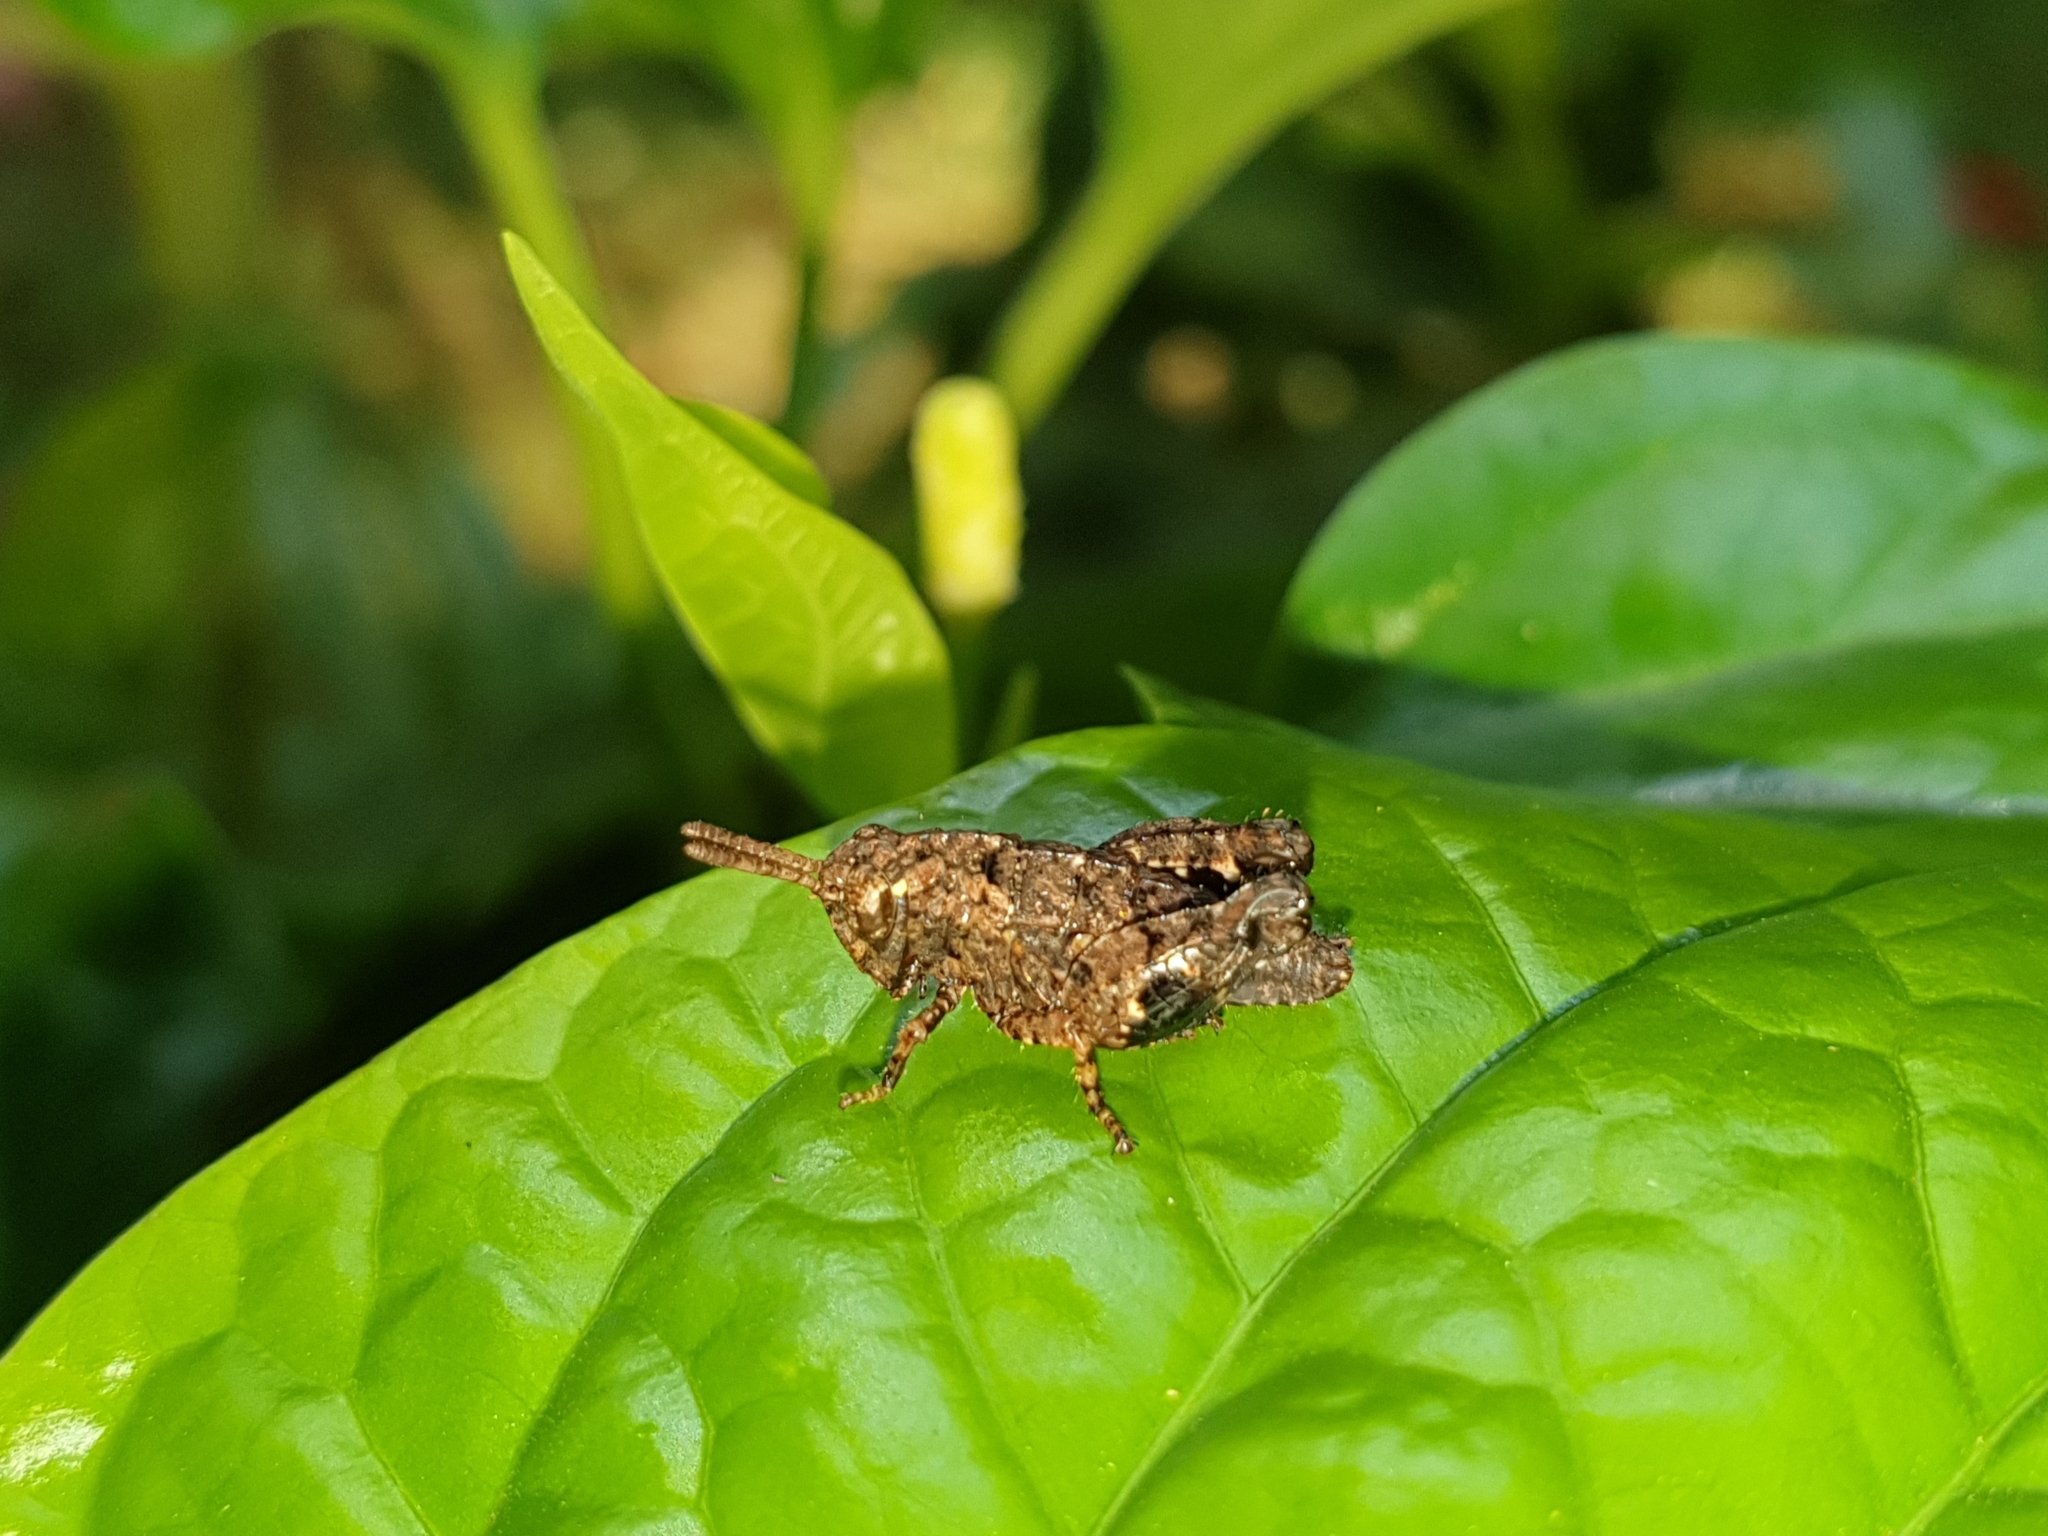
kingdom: Animalia
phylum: Arthropoda
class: Insecta
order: Orthoptera
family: Acrididae
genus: Dubitacris
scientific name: Dubitacris robustus
